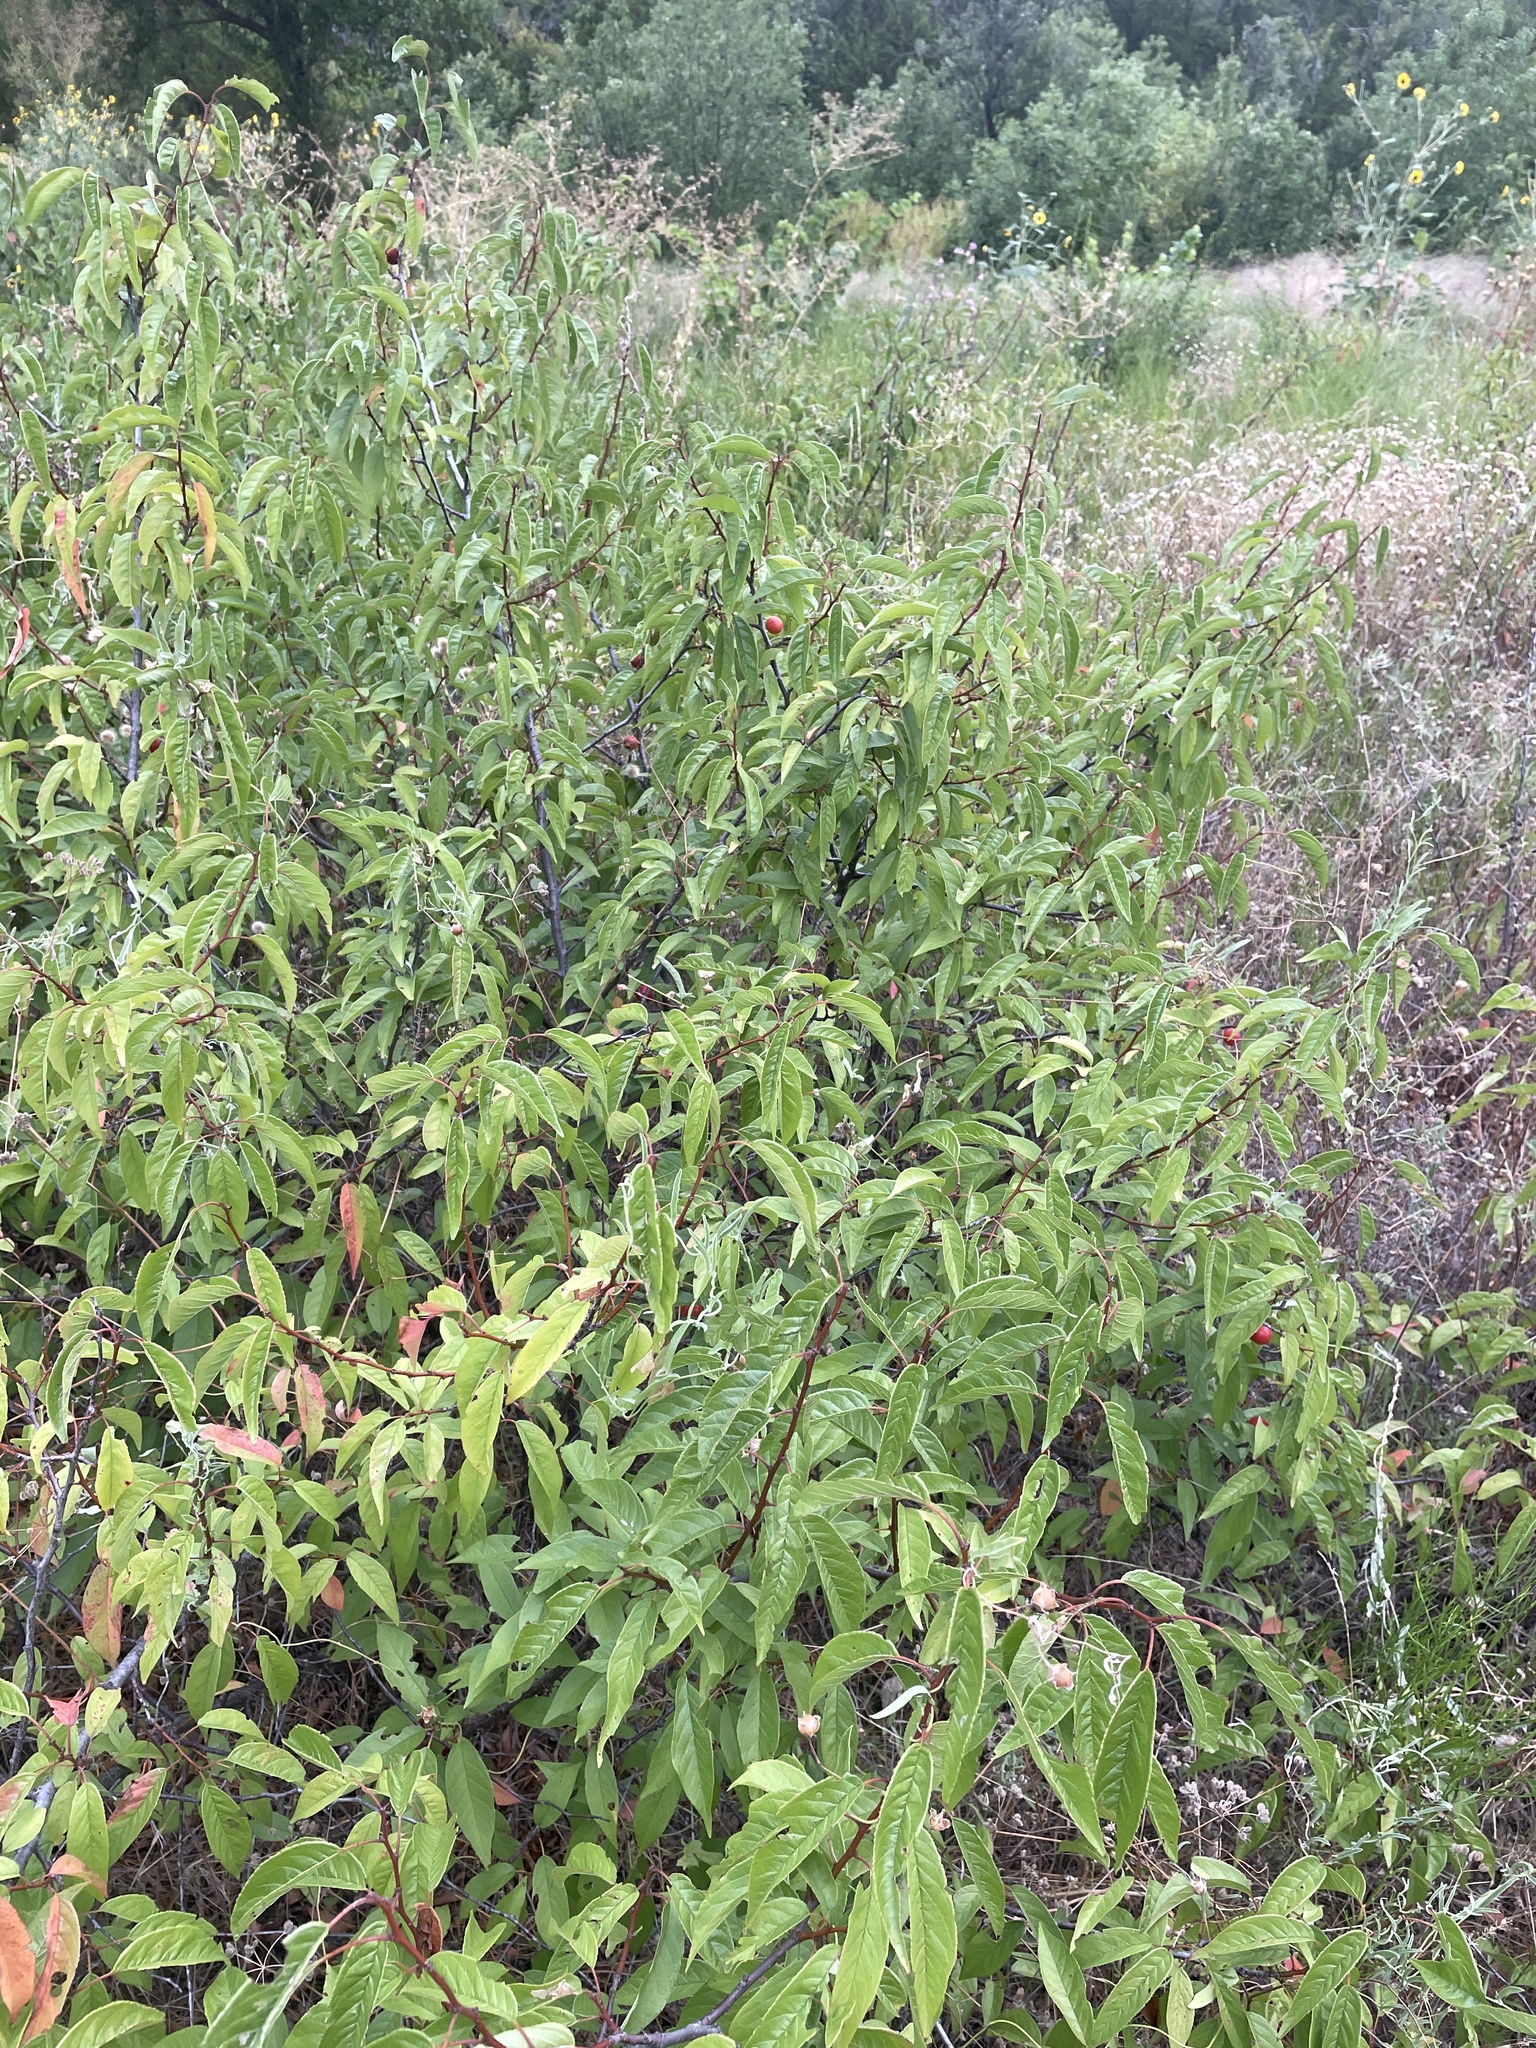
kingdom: Plantae
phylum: Tracheophyta
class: Magnoliopsida
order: Rosales
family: Rosaceae
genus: Prunus
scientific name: Prunus rivularis
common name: Creek plum
